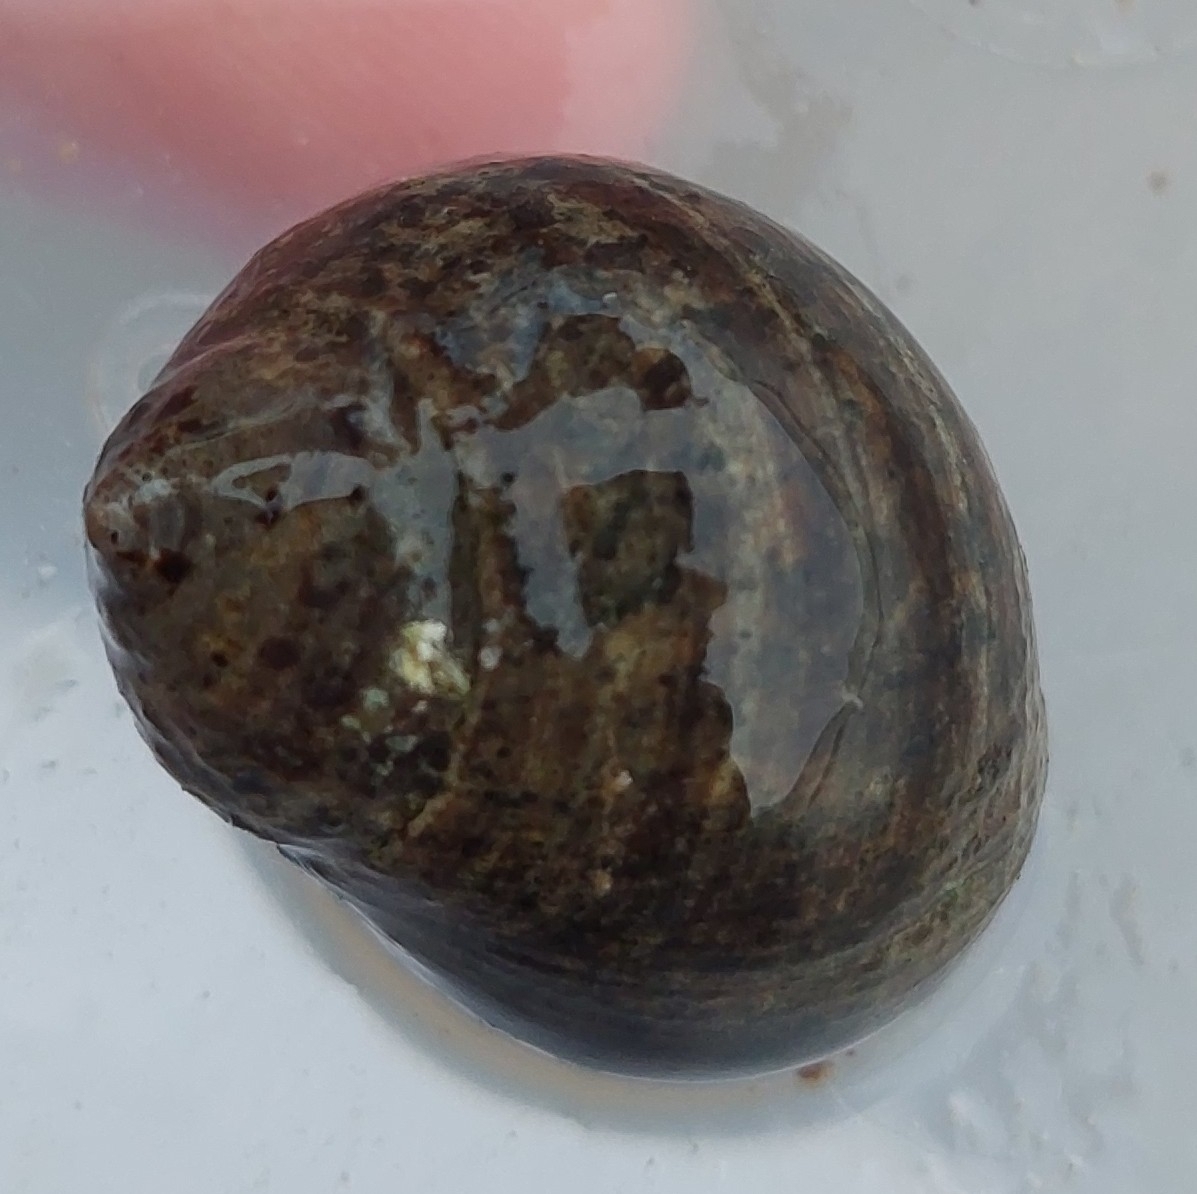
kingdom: Animalia
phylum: Mollusca
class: Gastropoda
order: Littorinimorpha
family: Littorinidae
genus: Littorina
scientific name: Littorina littorea
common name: Common periwinkle
